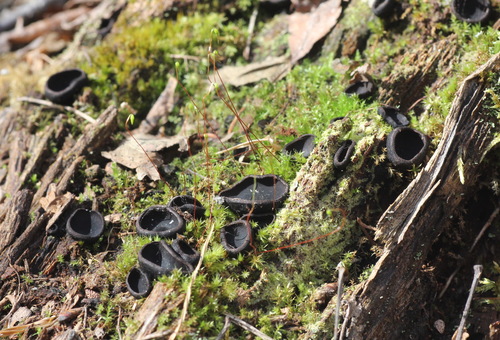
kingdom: Fungi
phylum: Ascomycota
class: Pezizomycetes
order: Pezizales
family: Sarcosomataceae
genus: Pseudoplectania
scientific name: Pseudoplectania nigrella
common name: Ebony cup
